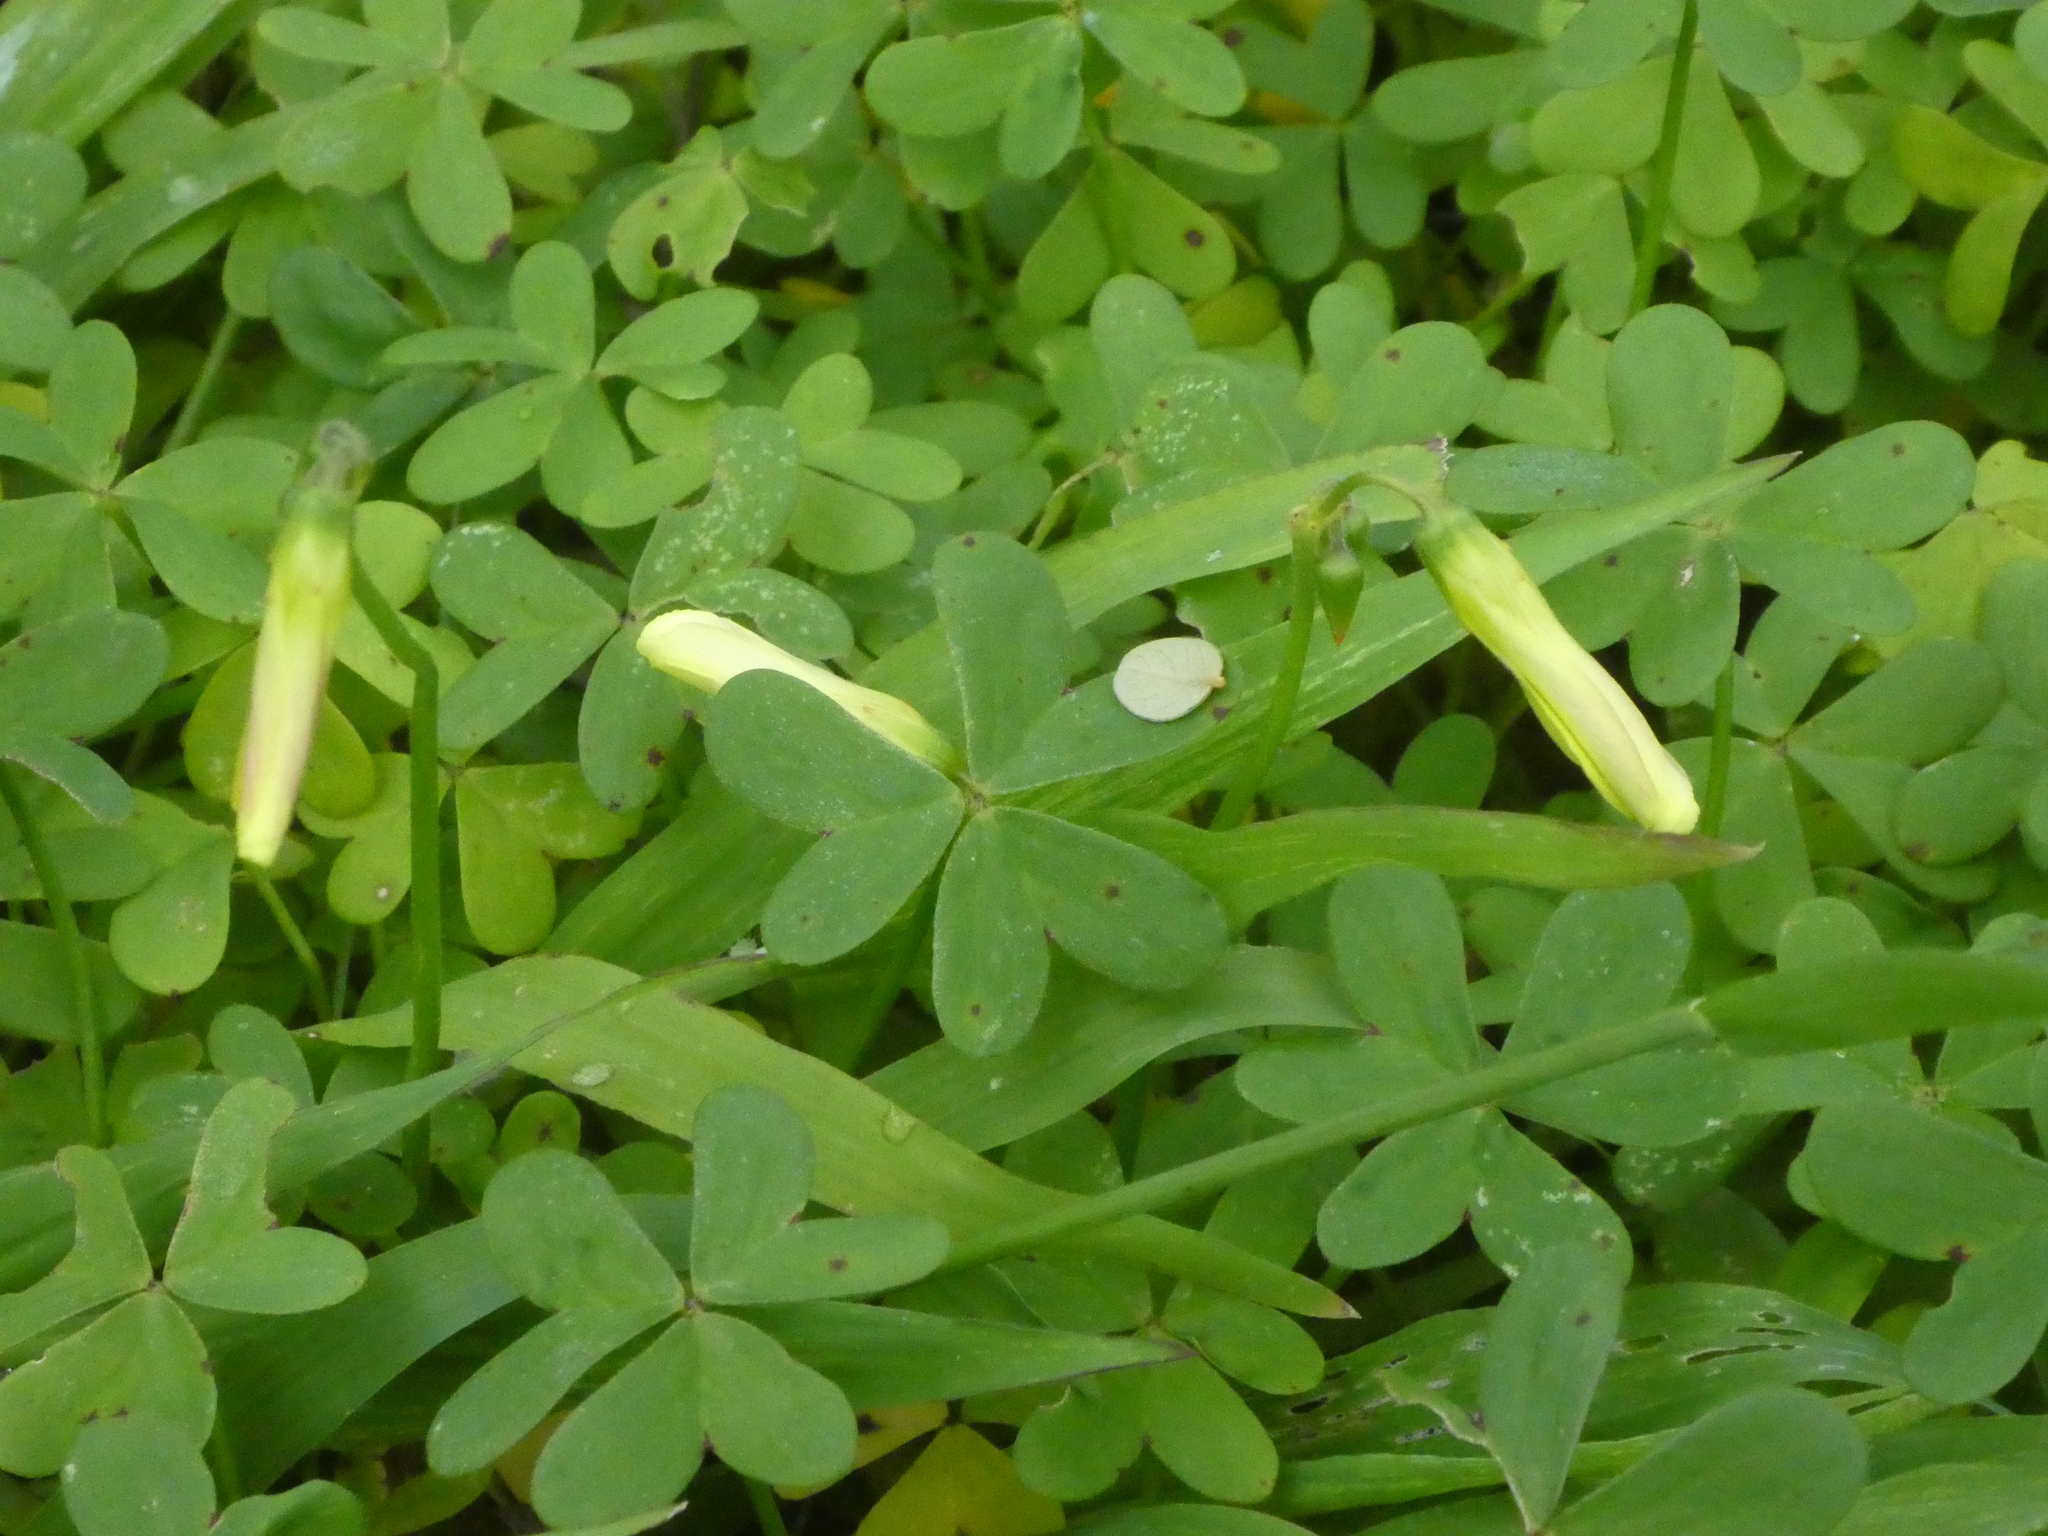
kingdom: Plantae
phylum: Tracheophyta
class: Magnoliopsida
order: Oxalidales
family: Oxalidaceae
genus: Oxalis
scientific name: Oxalis pes-caprae
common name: Bermuda-buttercup
